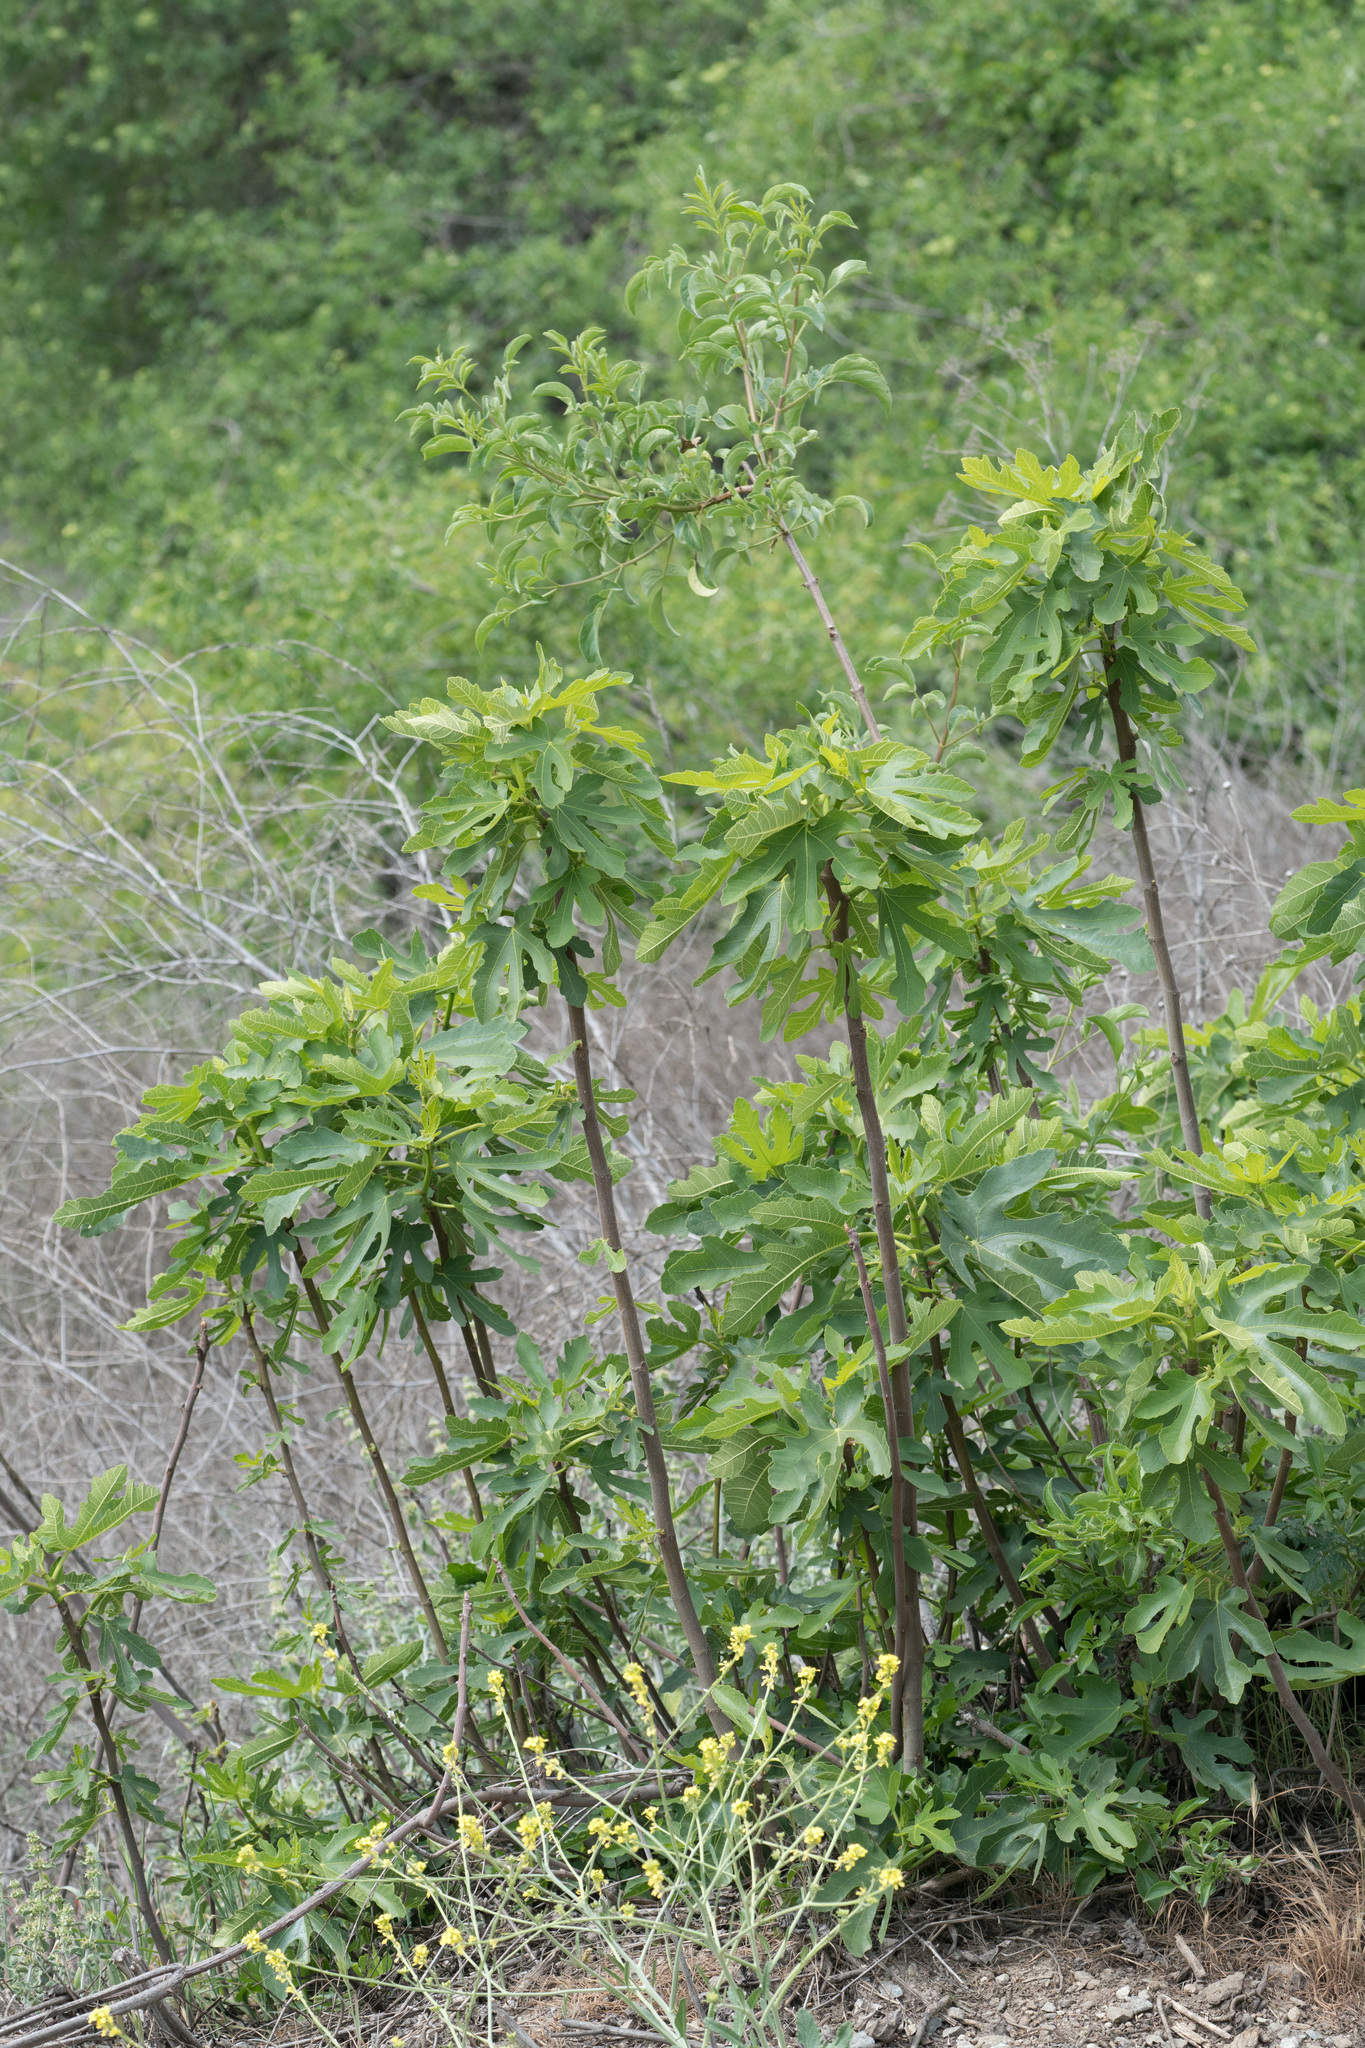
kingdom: Plantae
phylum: Tracheophyta
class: Magnoliopsida
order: Rosales
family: Moraceae
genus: Ficus
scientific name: Ficus carica
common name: Fig
